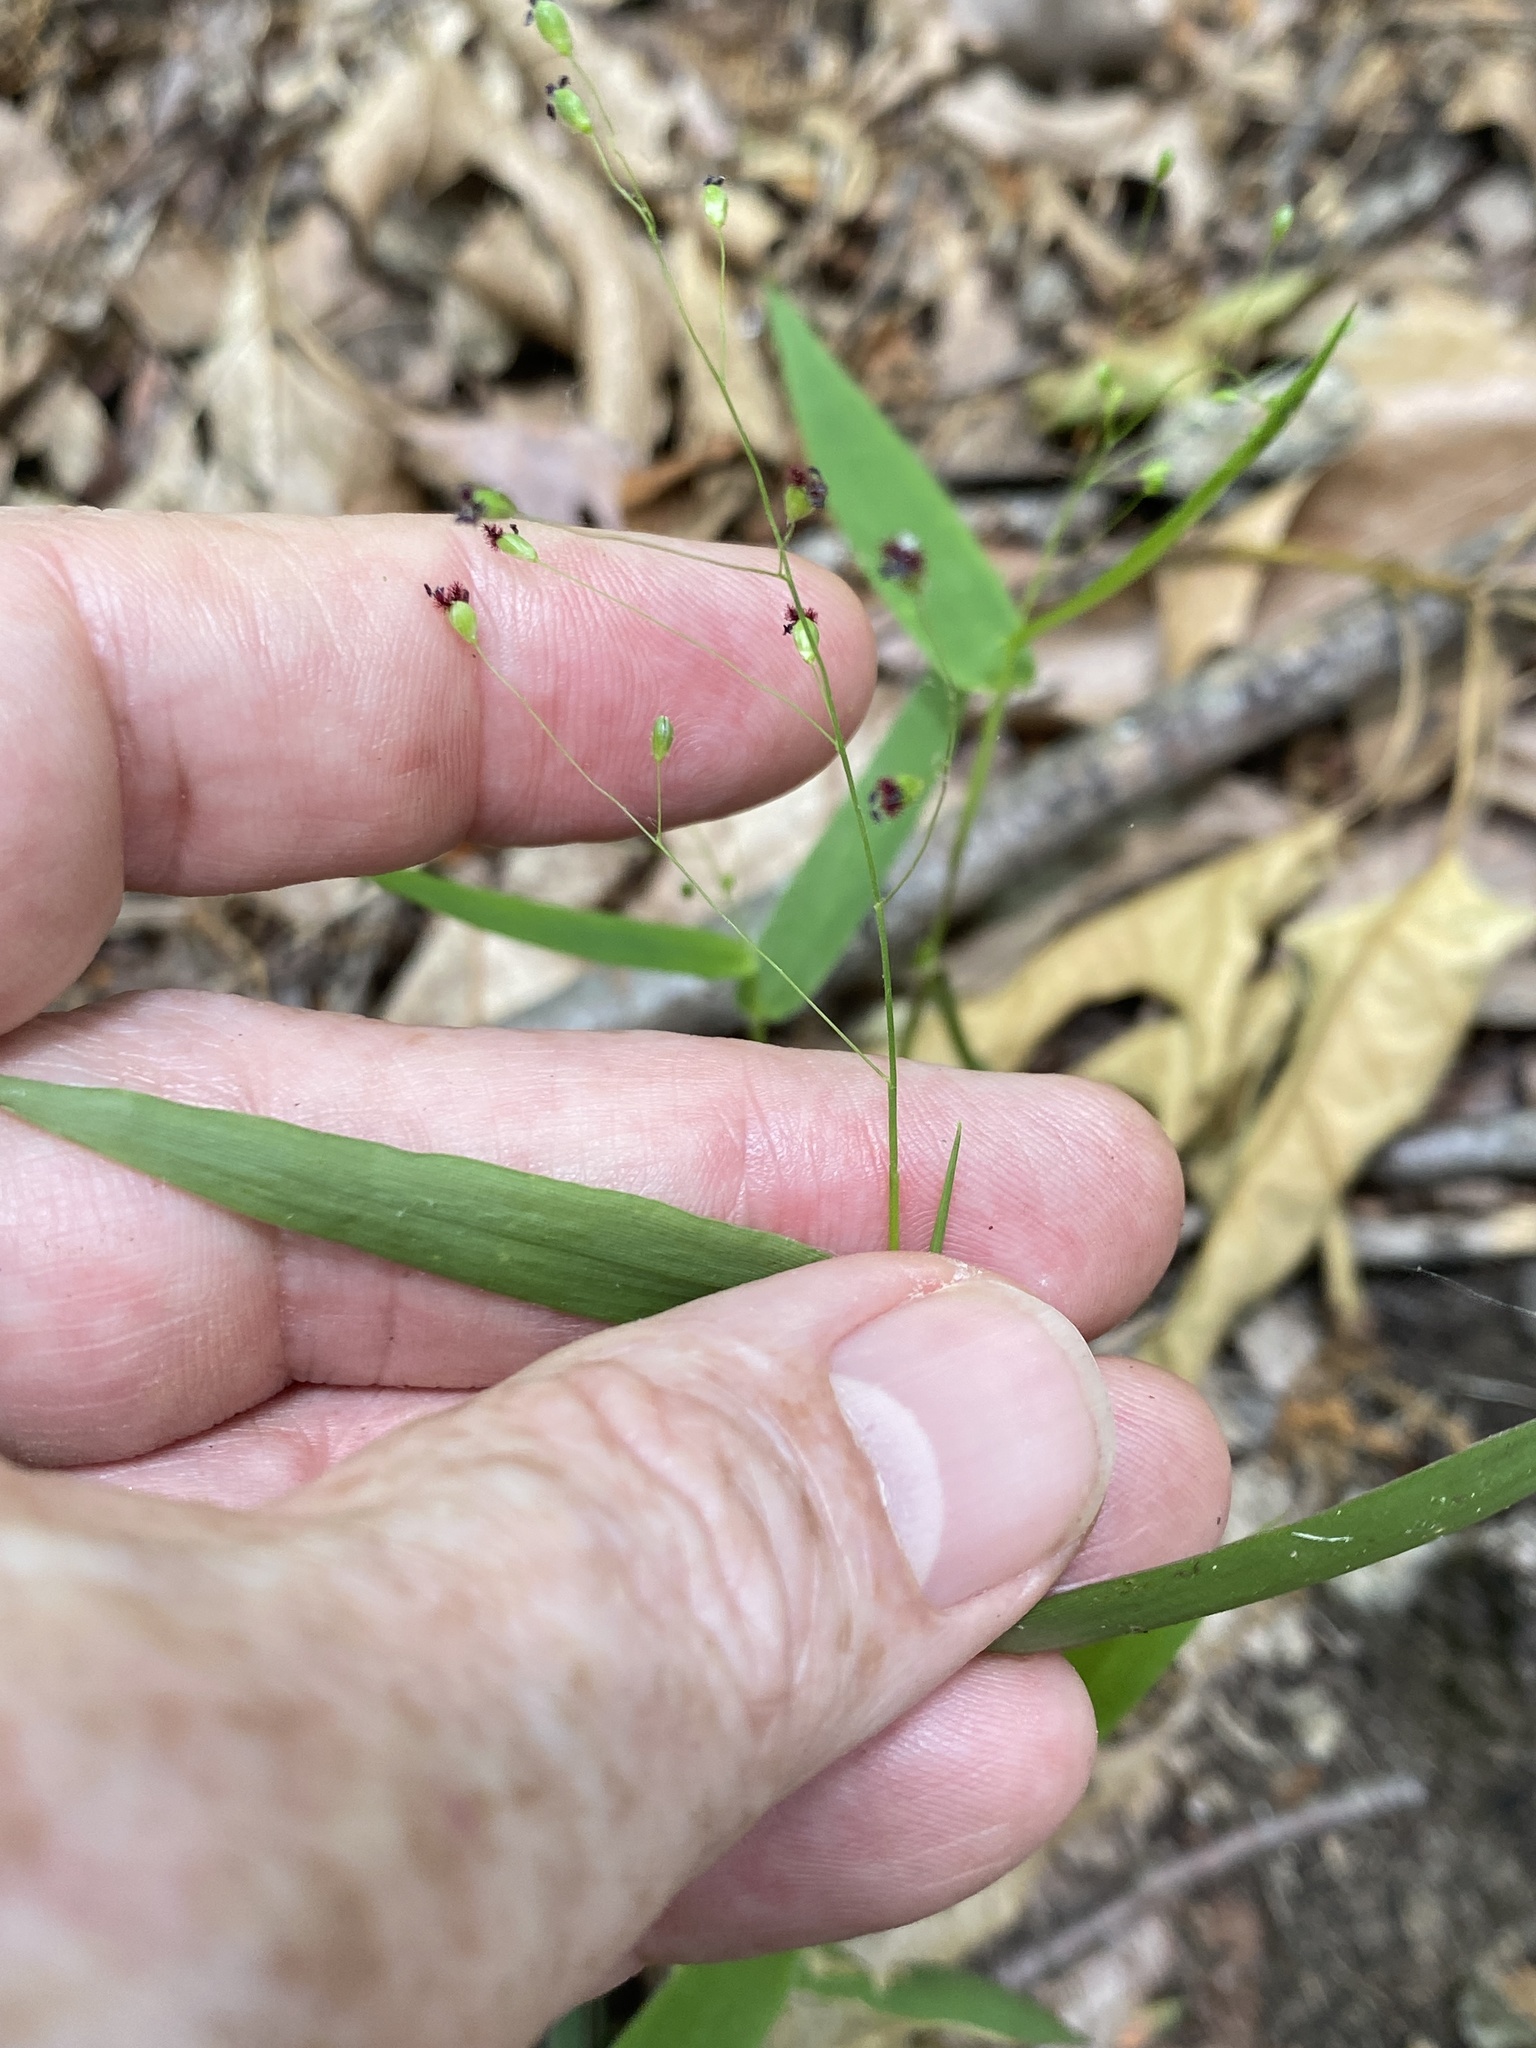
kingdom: Plantae
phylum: Tracheophyta
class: Liliopsida
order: Poales
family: Poaceae
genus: Dichanthelium
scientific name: Dichanthelium commutatum
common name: Variable witchgrass
